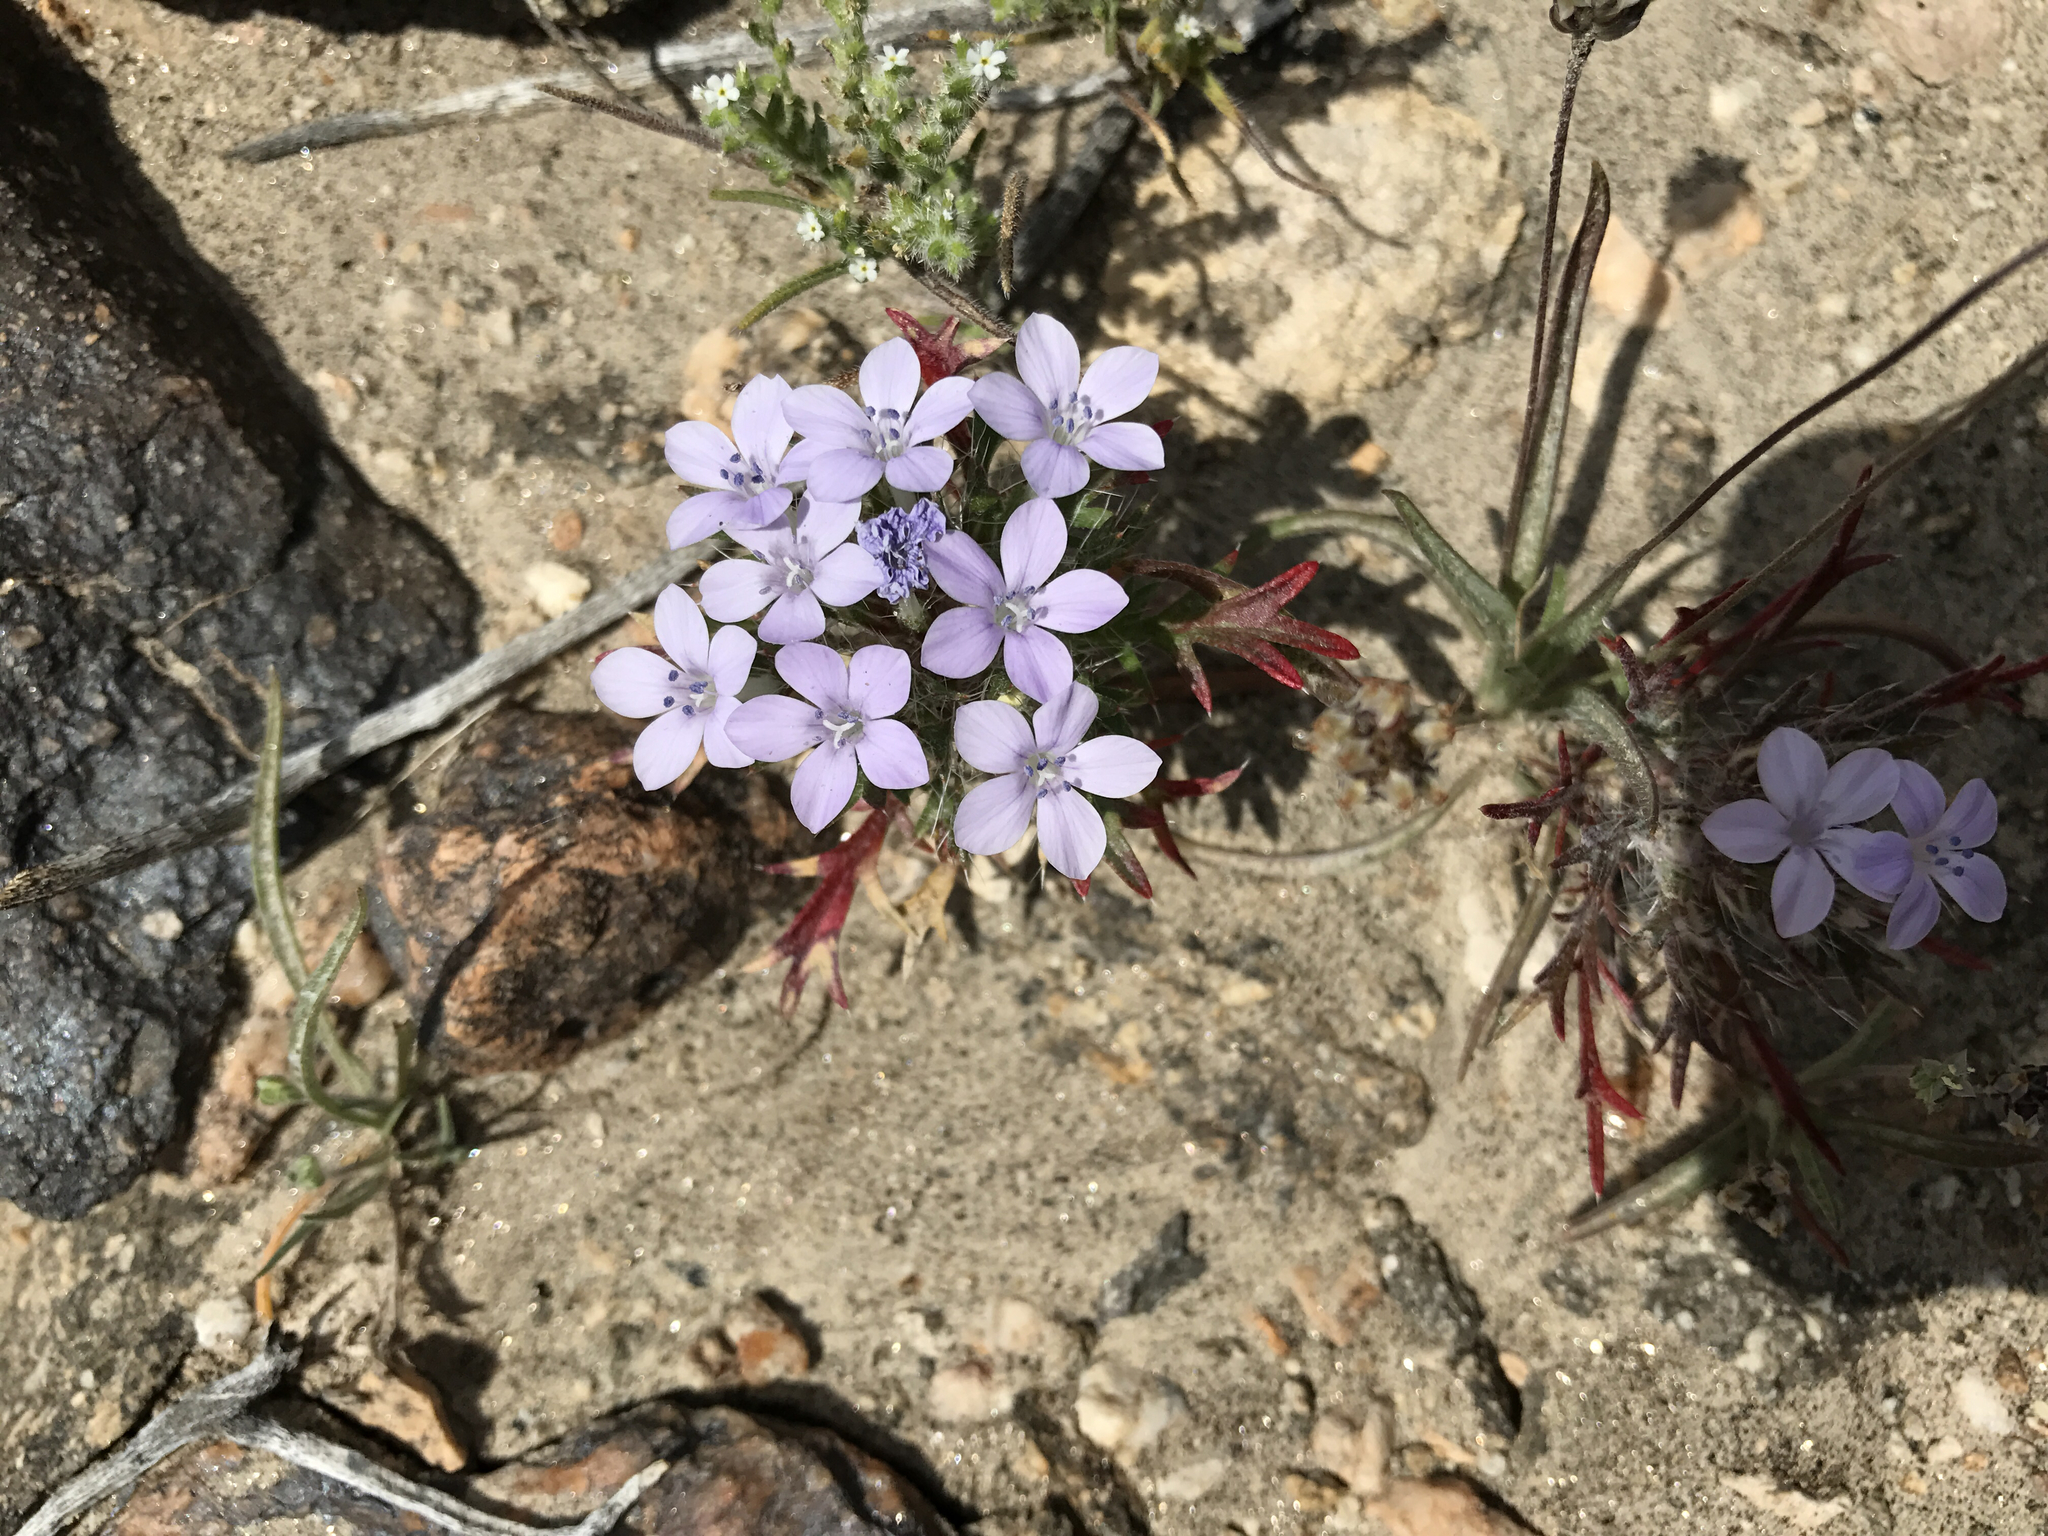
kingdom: Plantae
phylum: Tracheophyta
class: Magnoliopsida
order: Ericales
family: Polemoniaceae
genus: Langloisia
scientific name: Langloisia setosissima
